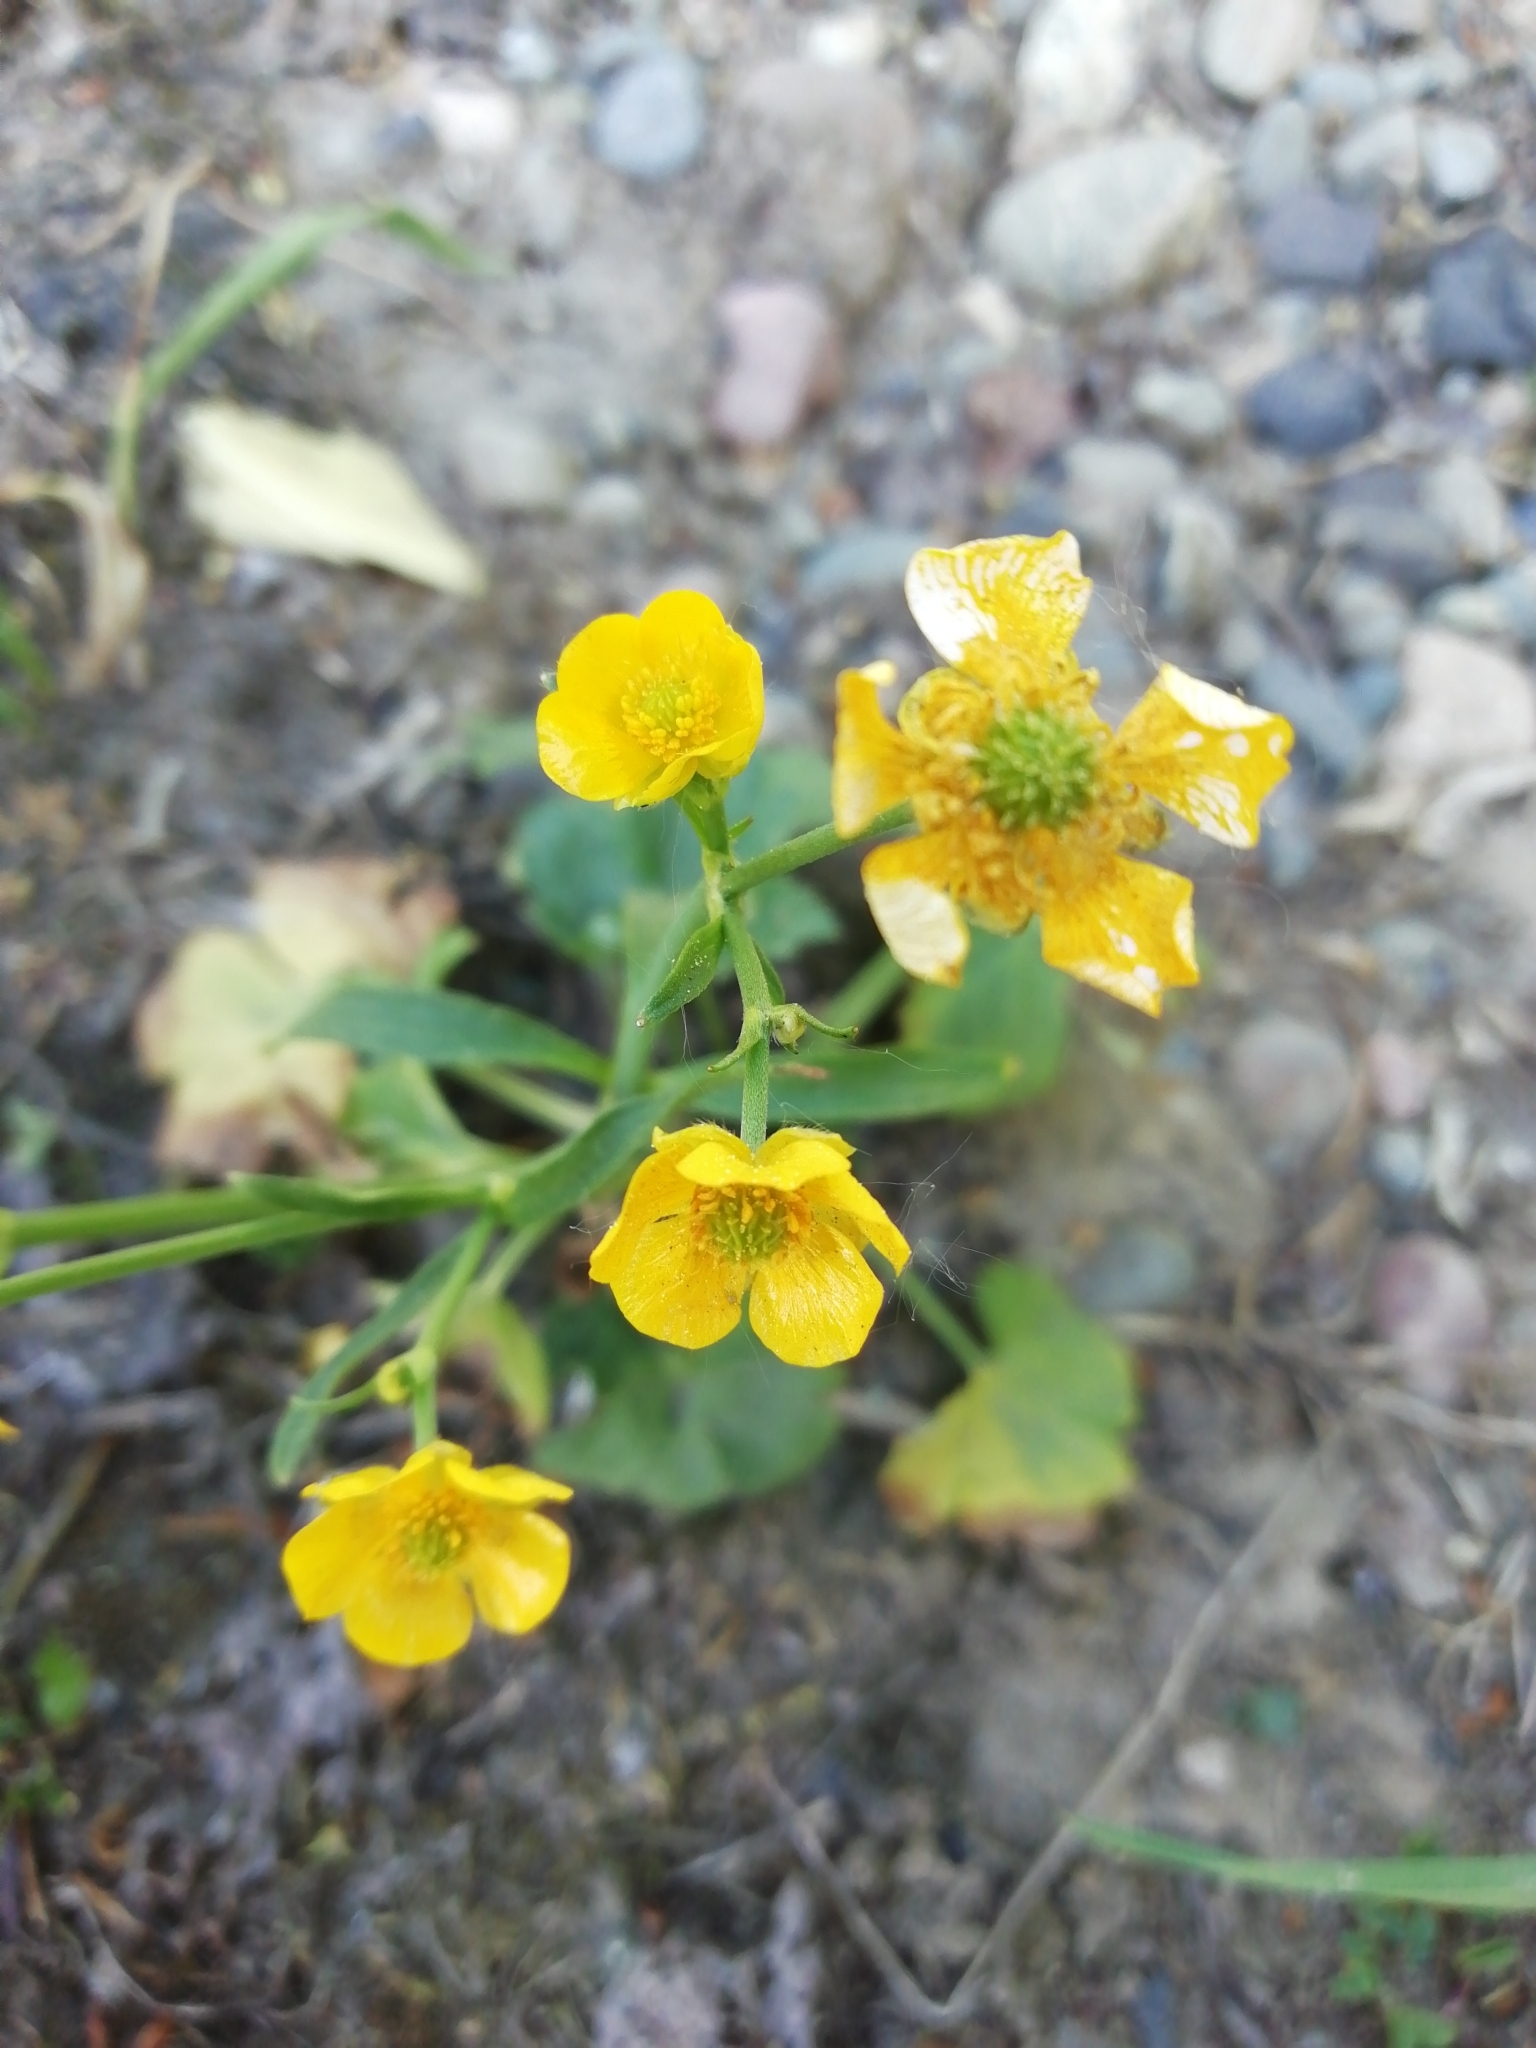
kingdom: Plantae
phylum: Tracheophyta
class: Magnoliopsida
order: Ranunculales
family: Ranunculaceae
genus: Ranunculus
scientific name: Ranunculus propinquus
